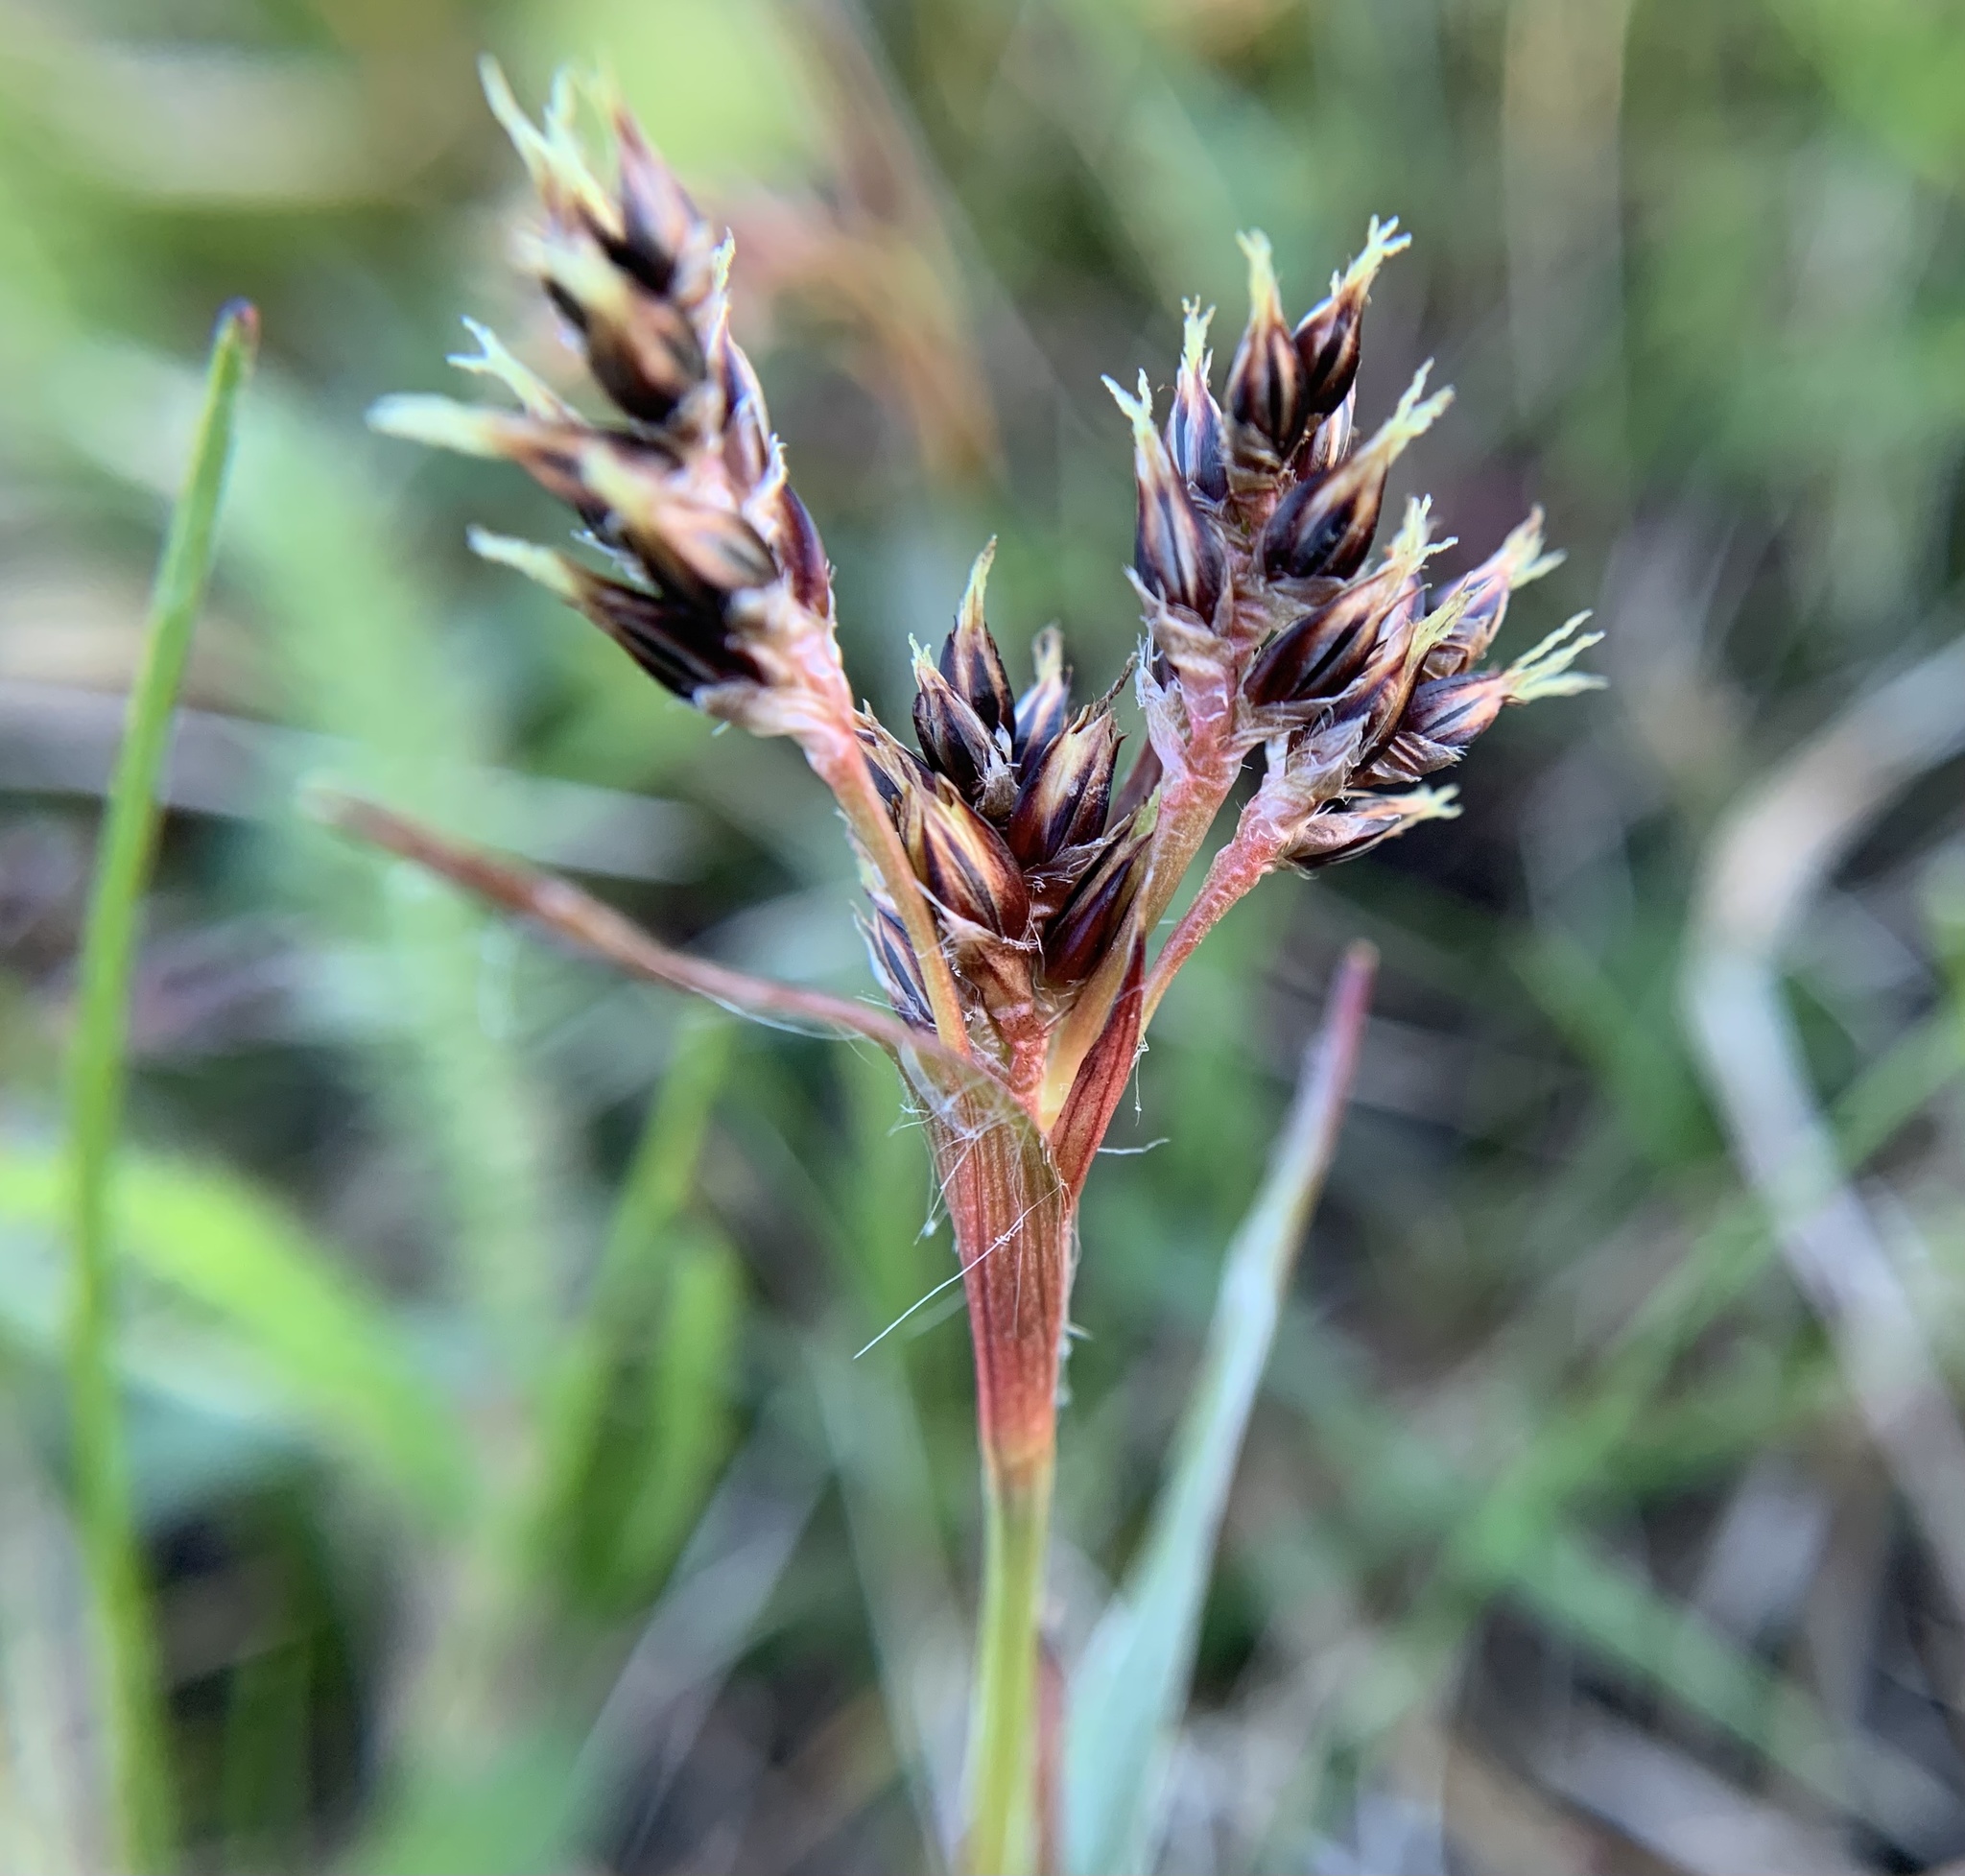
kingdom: Plantae
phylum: Tracheophyta
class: Liliopsida
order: Poales
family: Juncaceae
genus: Luzula
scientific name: Luzula campestris
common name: Field wood-rush
